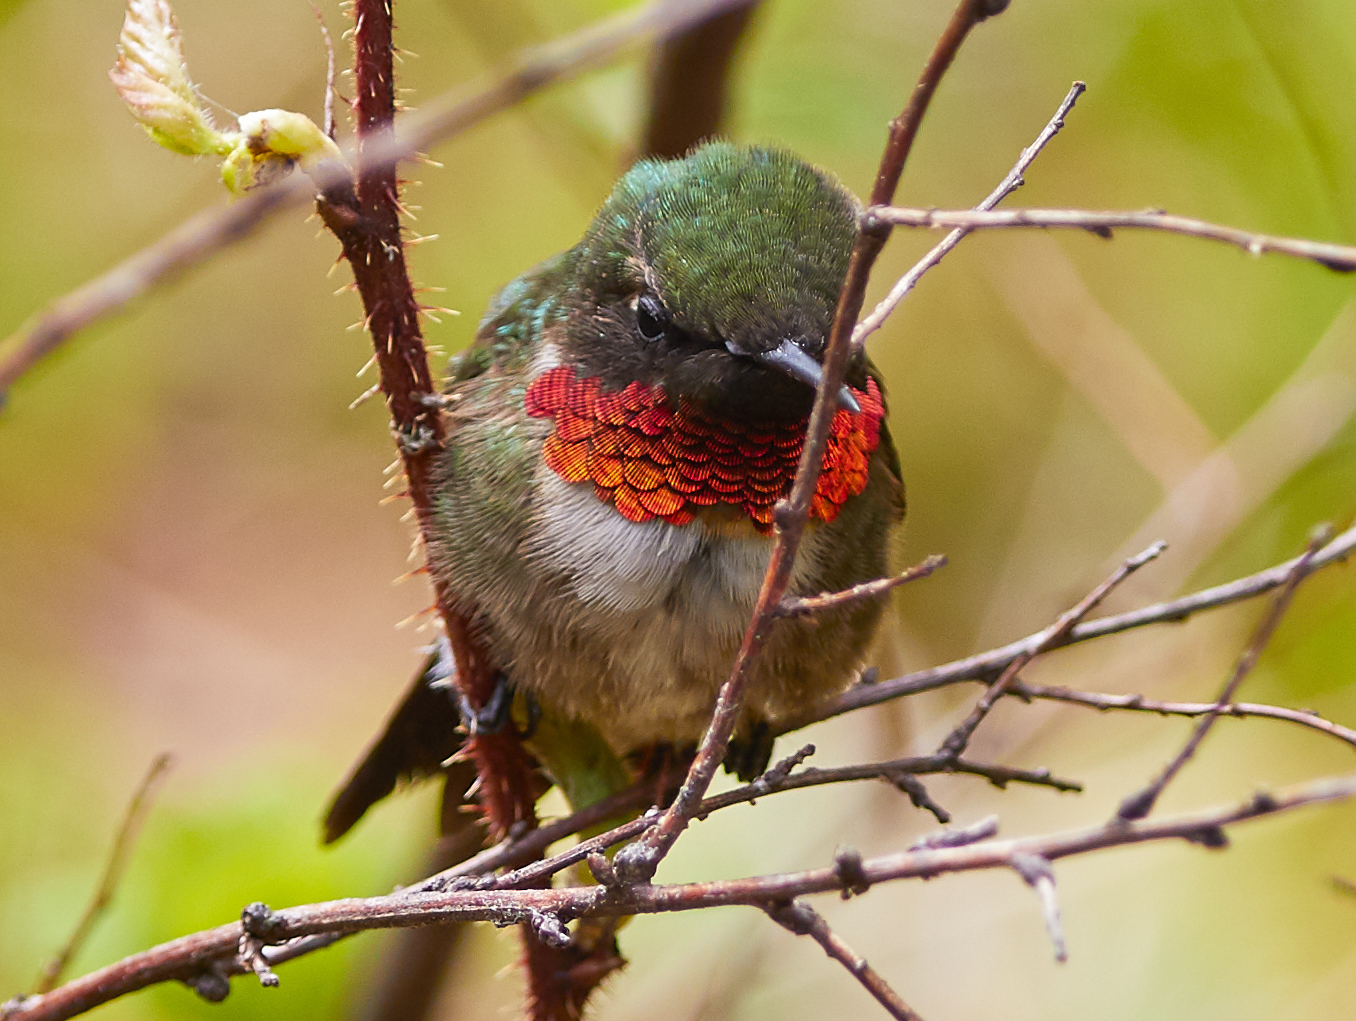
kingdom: Animalia
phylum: Chordata
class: Aves
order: Apodiformes
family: Trochilidae
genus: Archilochus
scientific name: Archilochus colubris
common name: Ruby-throated hummingbird
